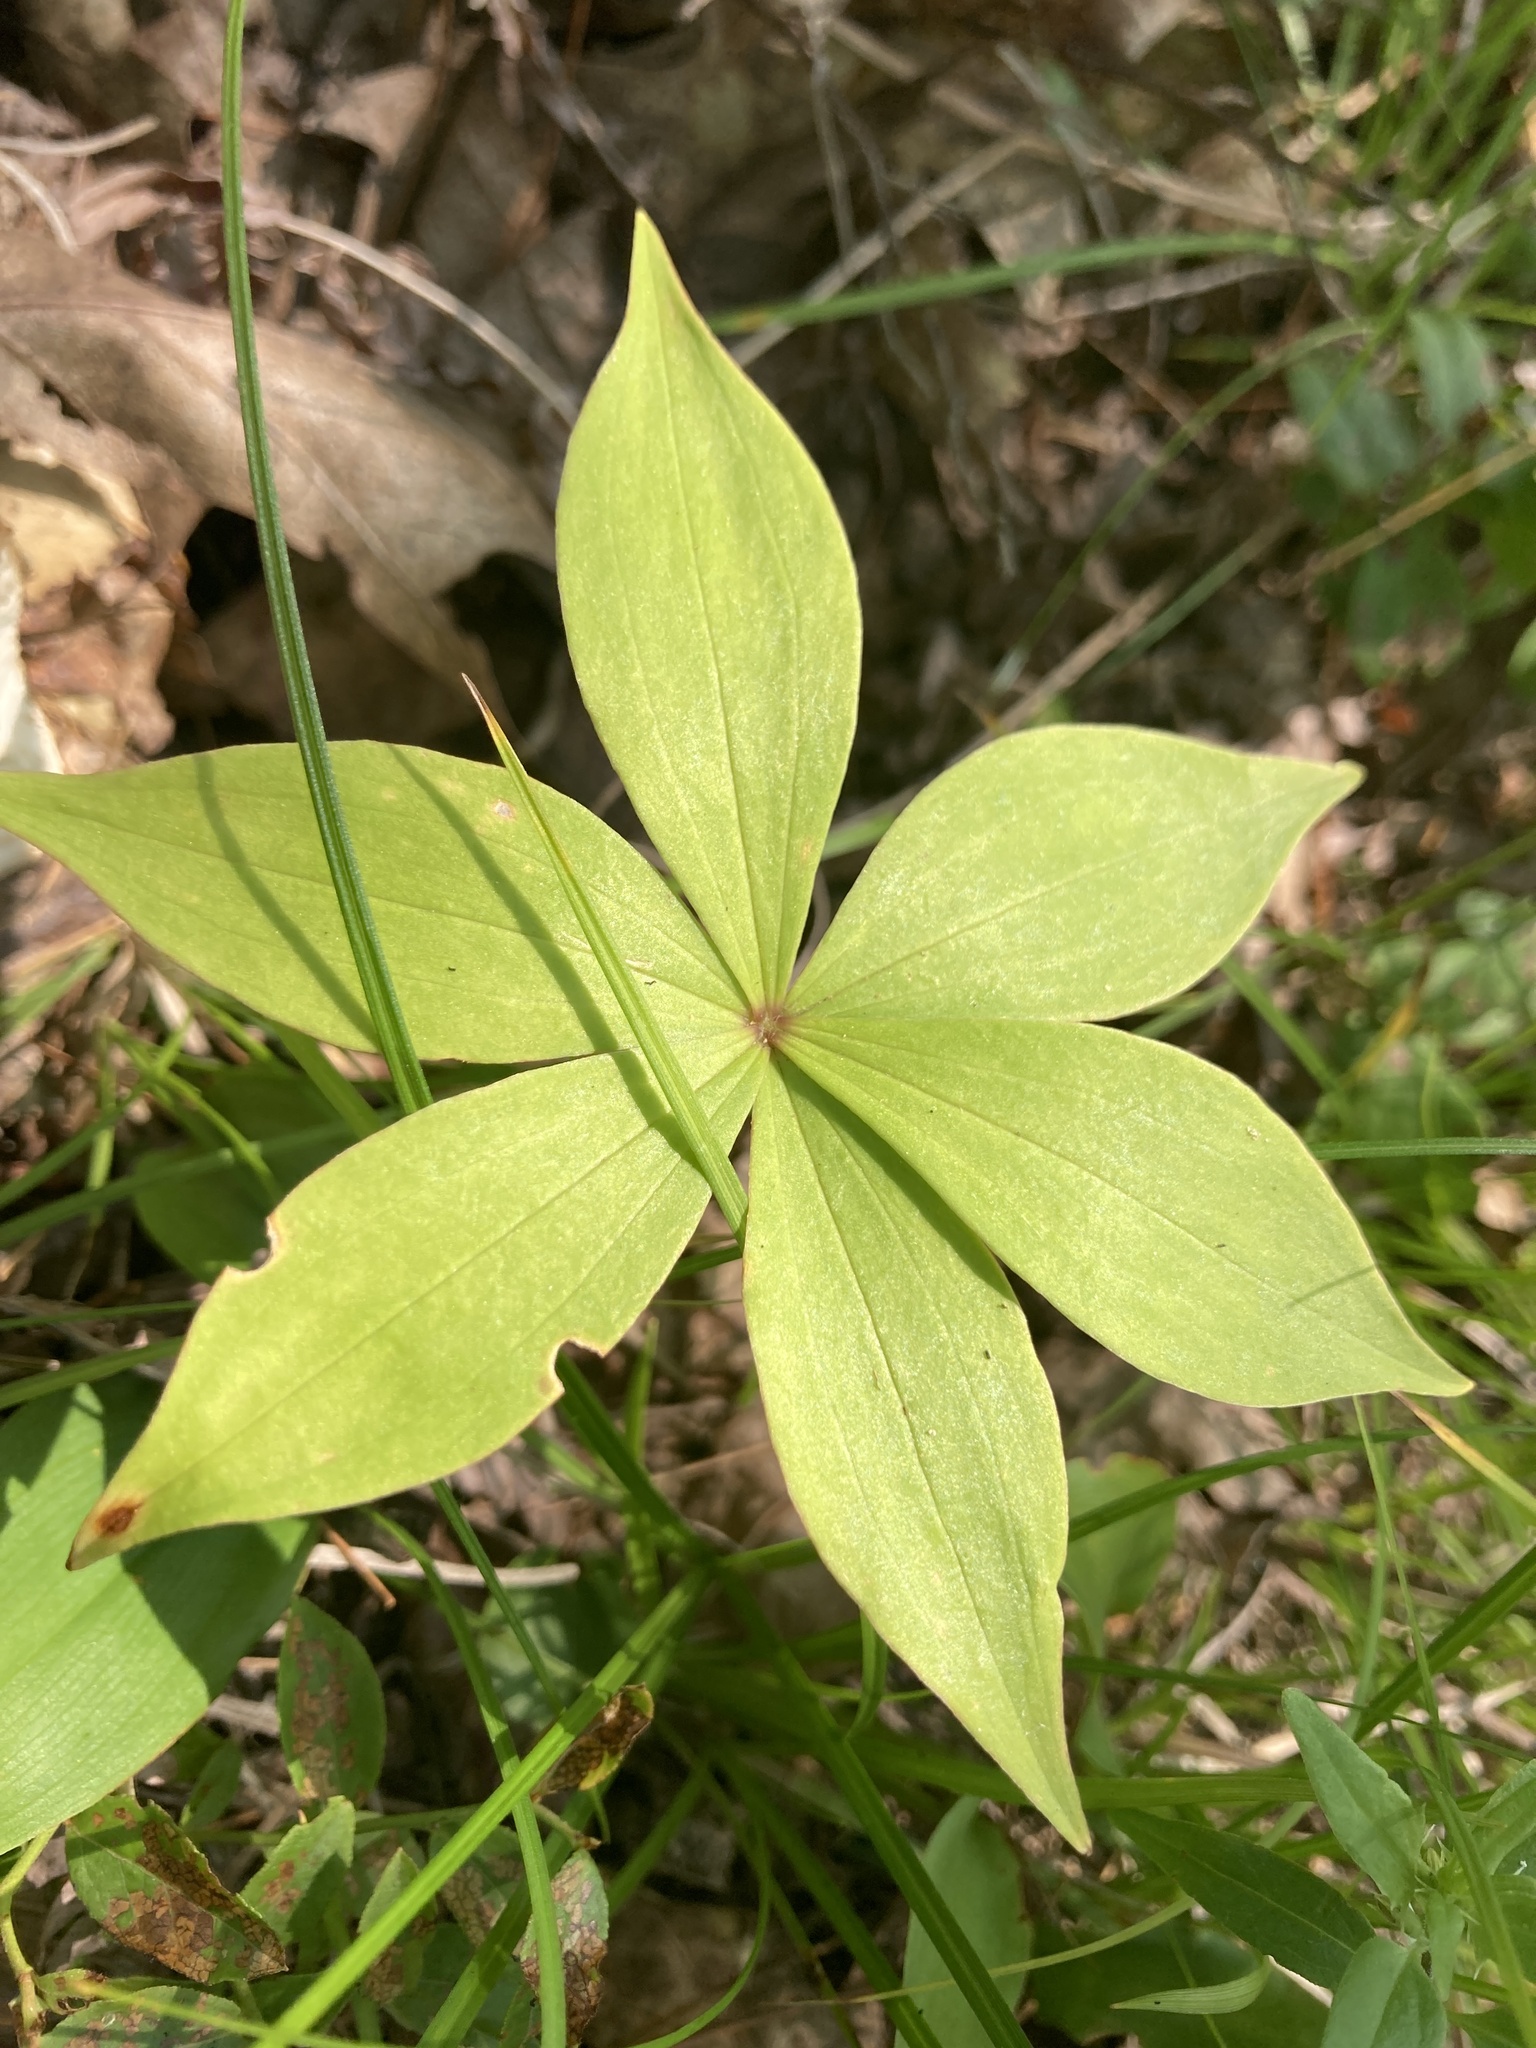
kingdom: Plantae
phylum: Tracheophyta
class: Liliopsida
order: Liliales
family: Liliaceae
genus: Medeola
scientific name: Medeola virginiana
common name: Indian cucumber-root
